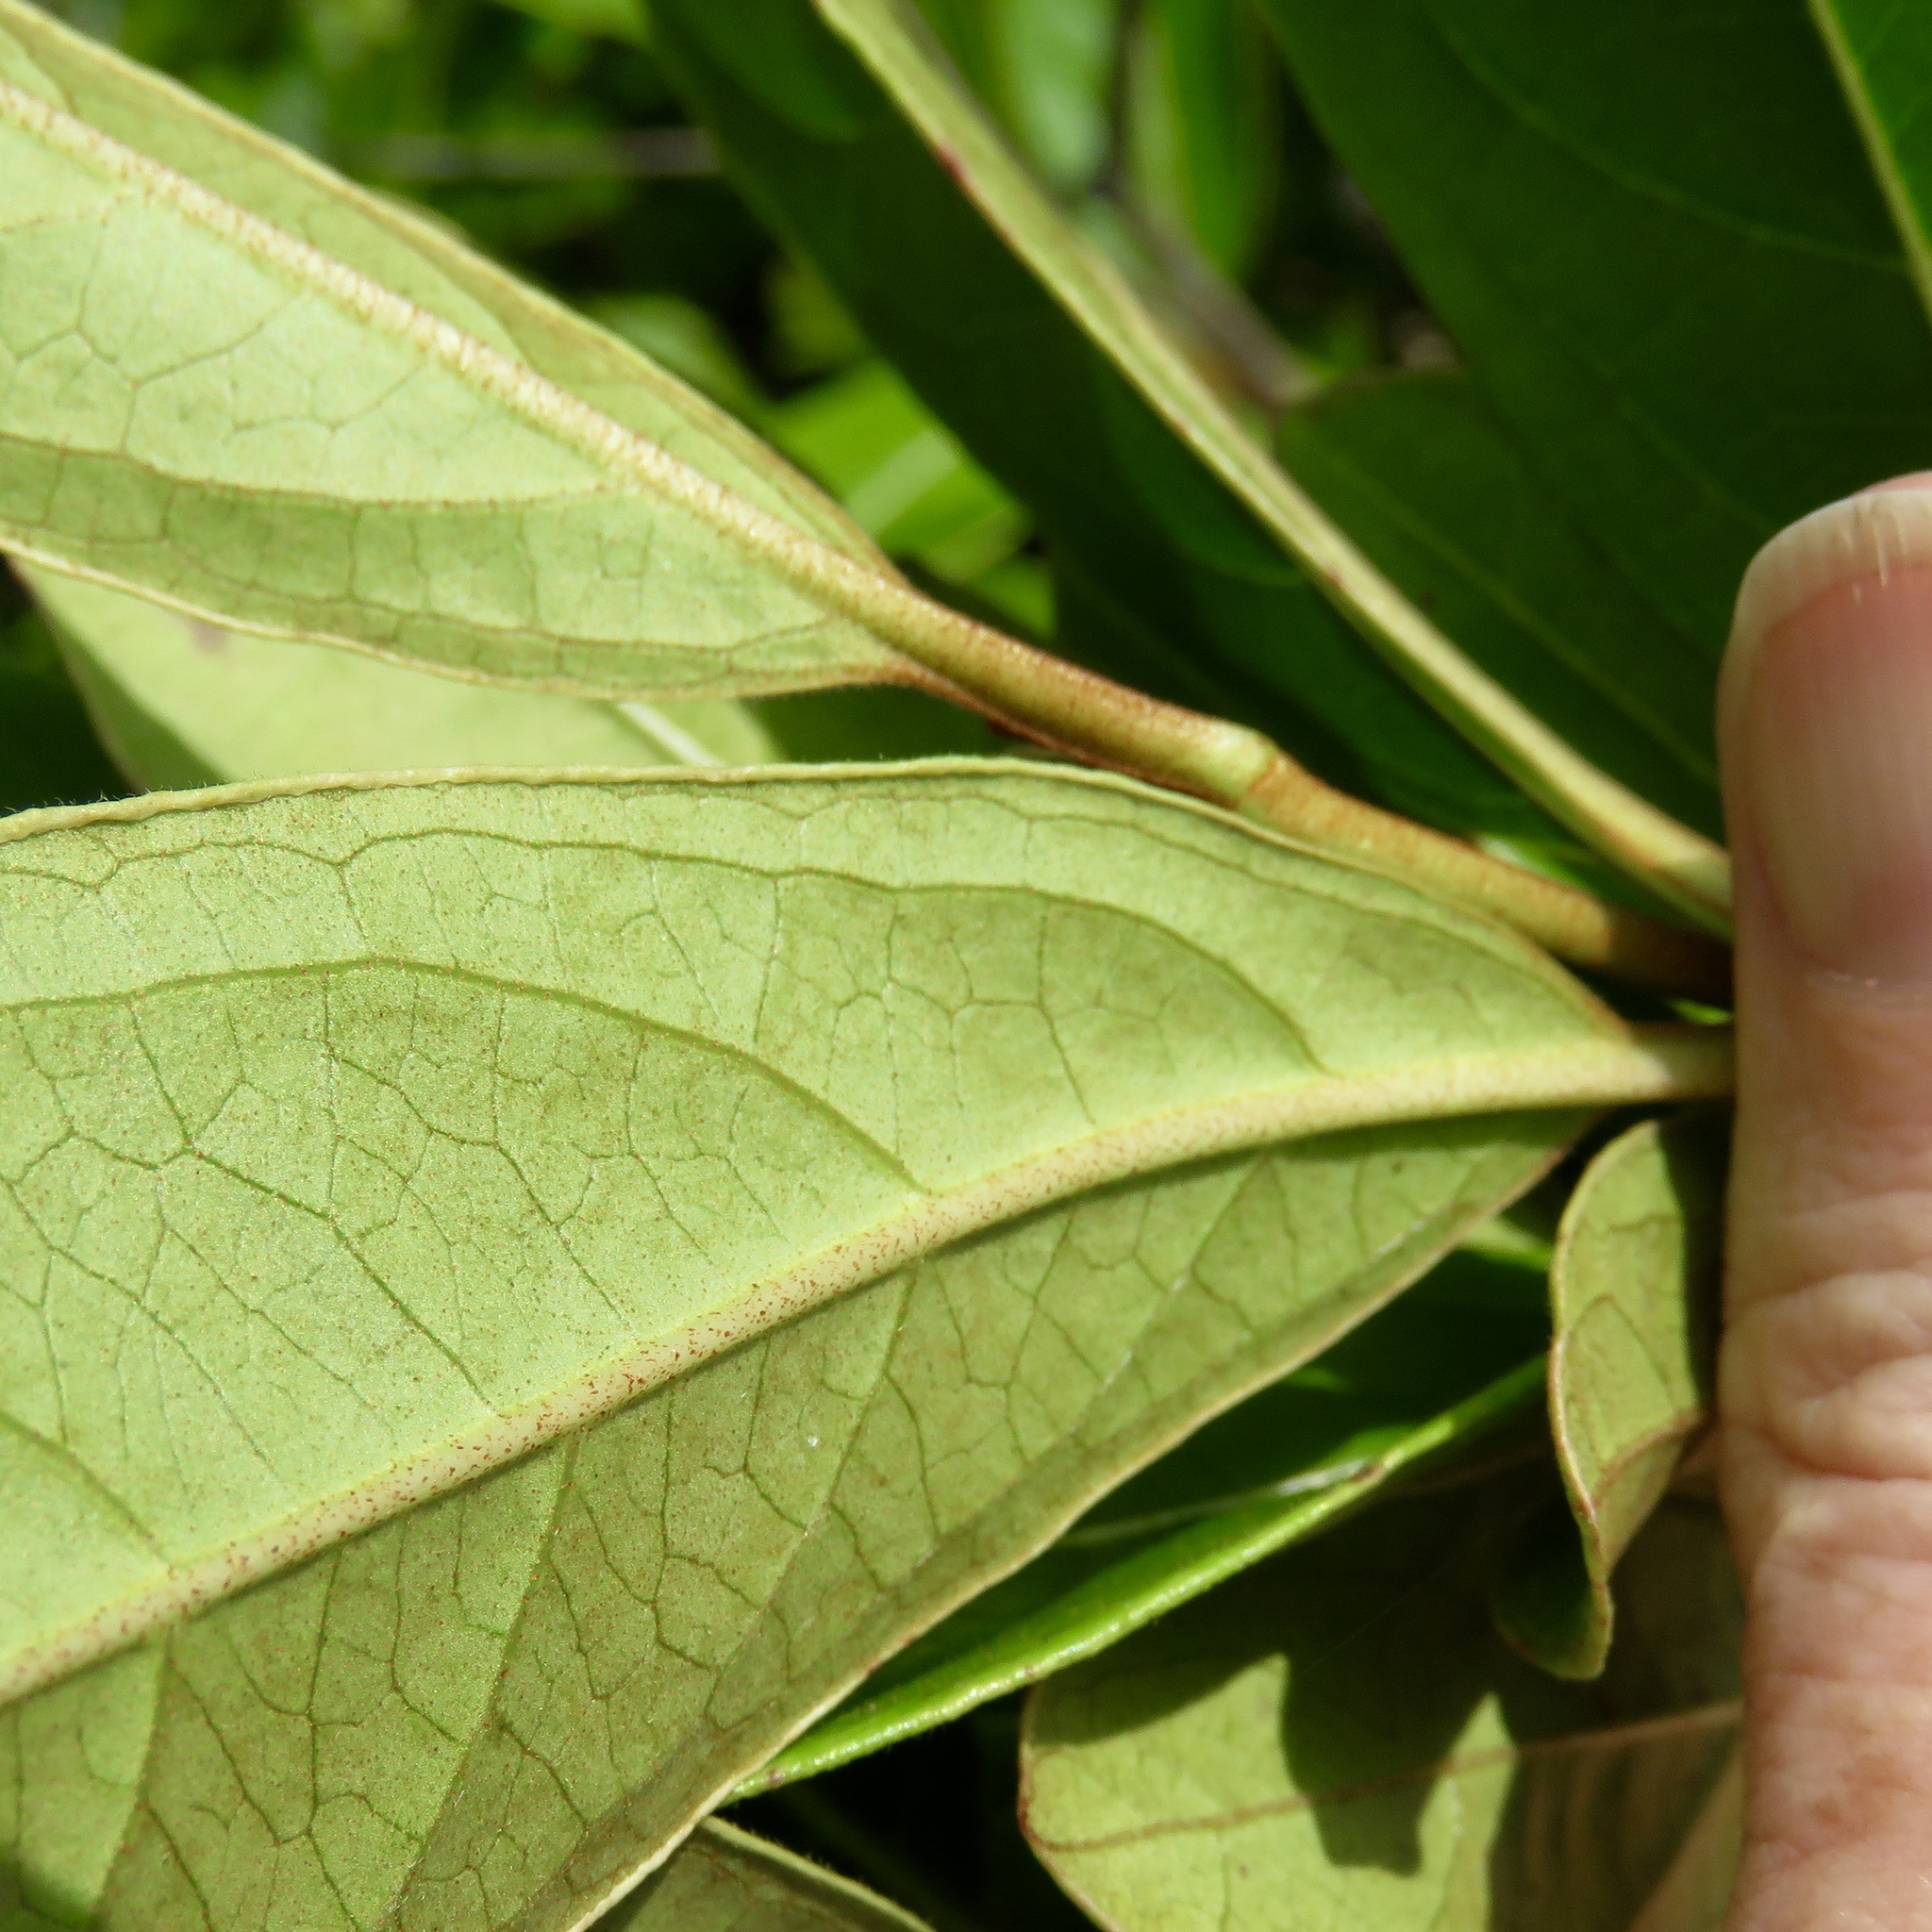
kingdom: Plantae
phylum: Tracheophyta
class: Magnoliopsida
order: Laurales
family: Lauraceae
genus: Persea
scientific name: Persea palustris
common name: Swampbay
